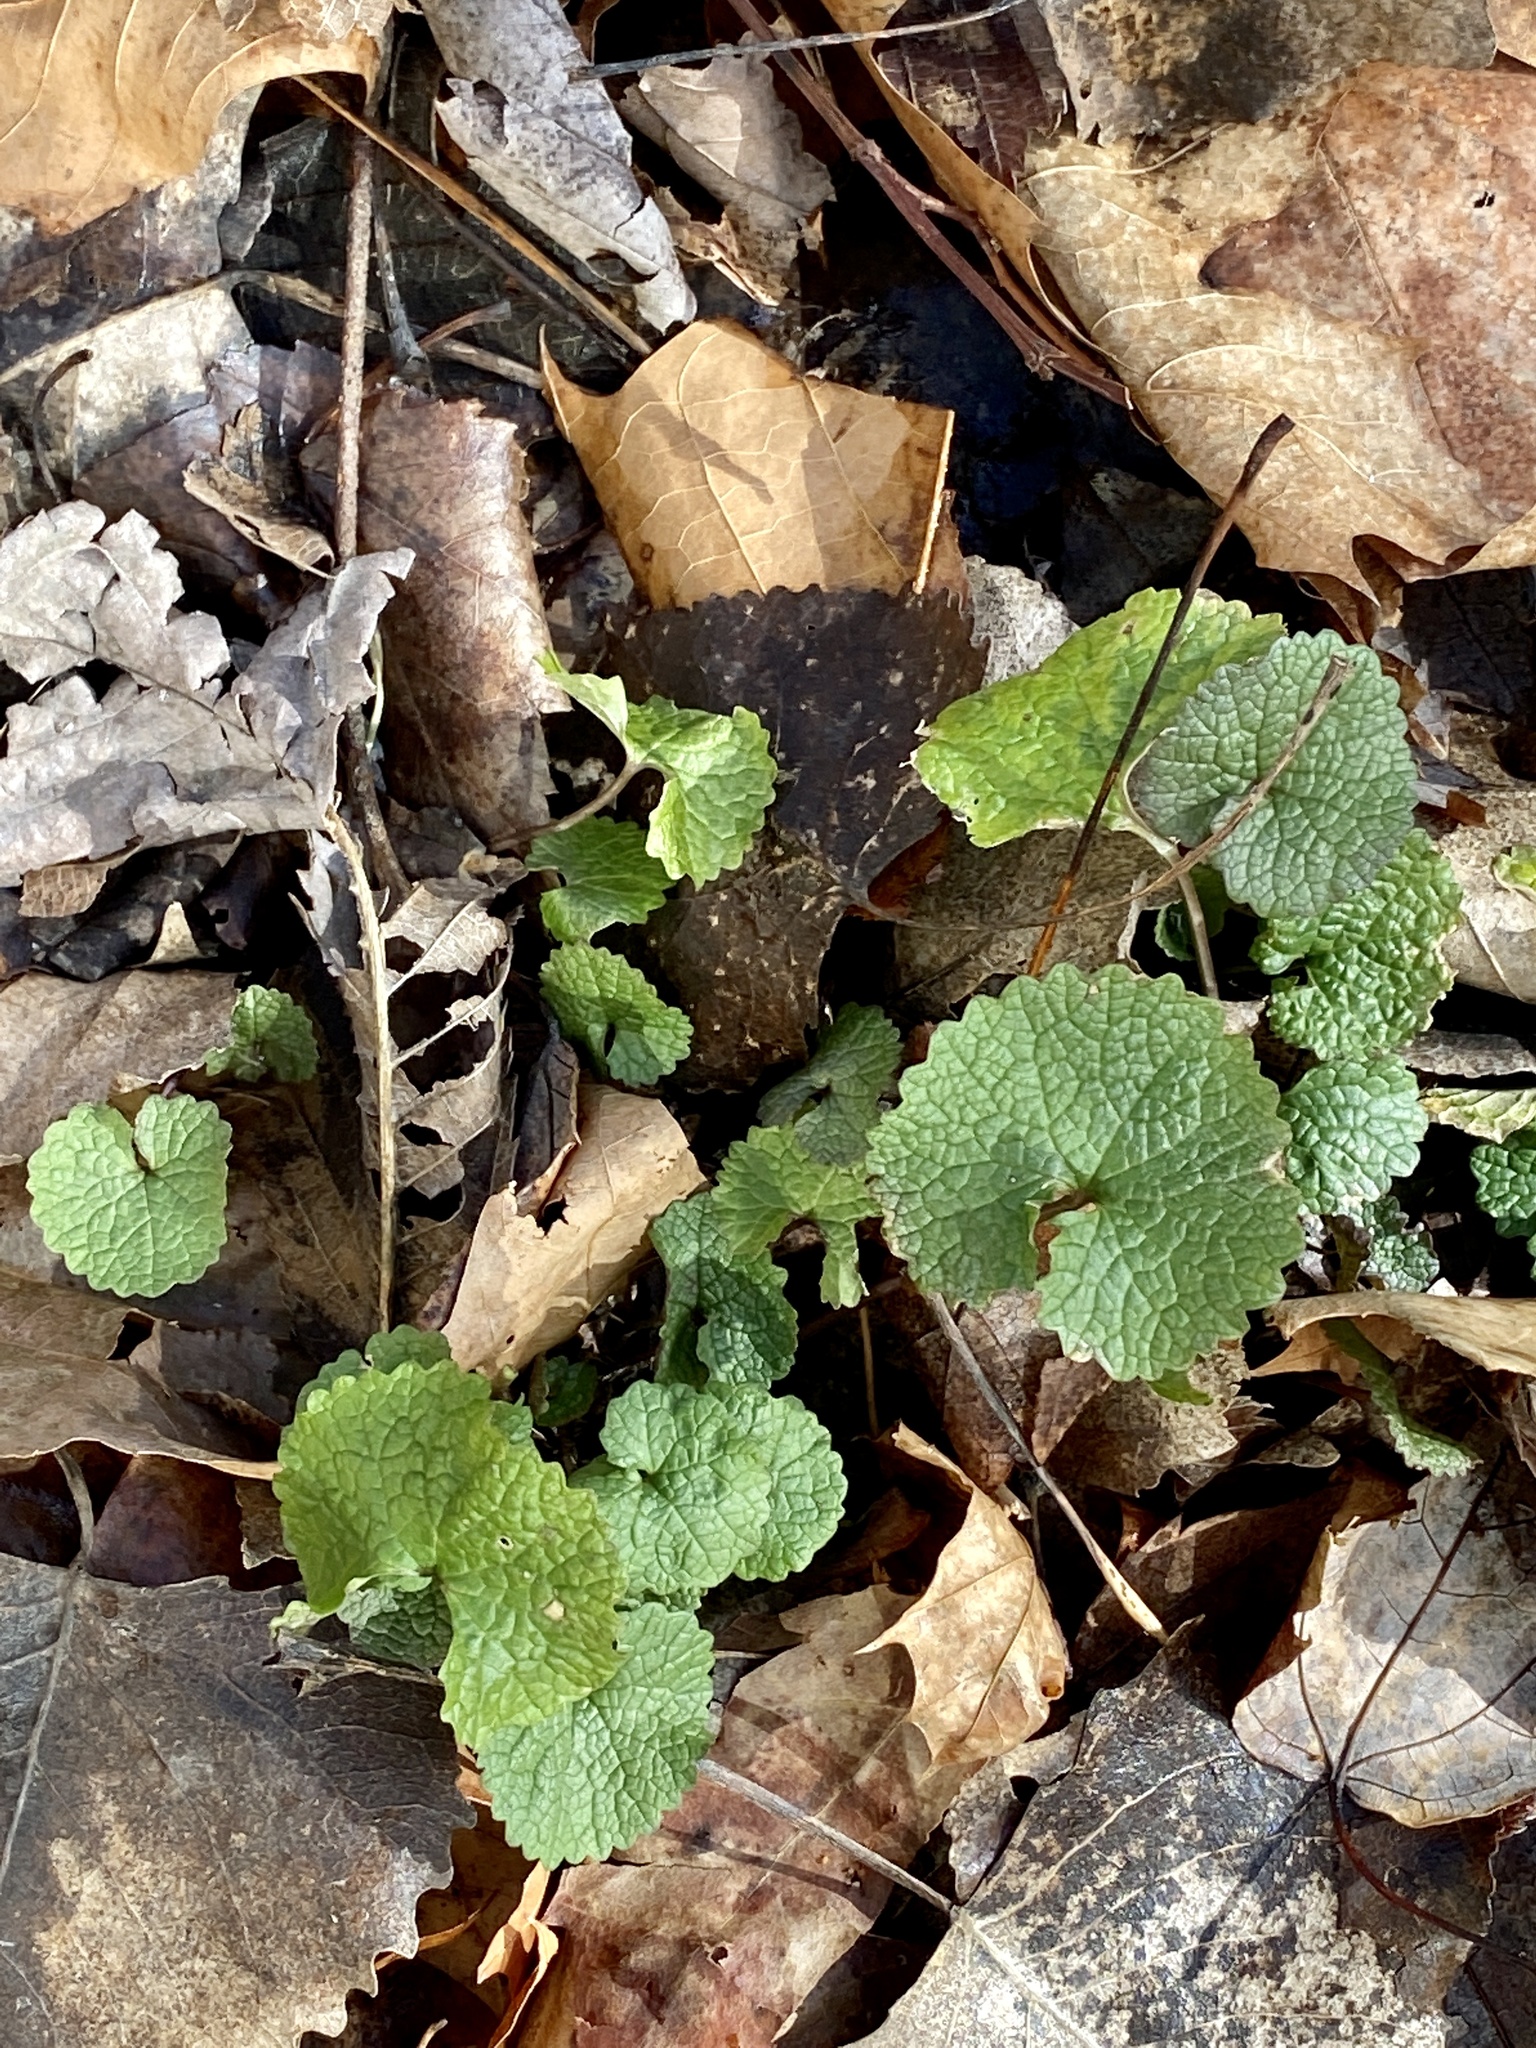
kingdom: Plantae
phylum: Tracheophyta
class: Magnoliopsida
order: Brassicales
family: Brassicaceae
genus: Alliaria
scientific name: Alliaria petiolata
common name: Garlic mustard
